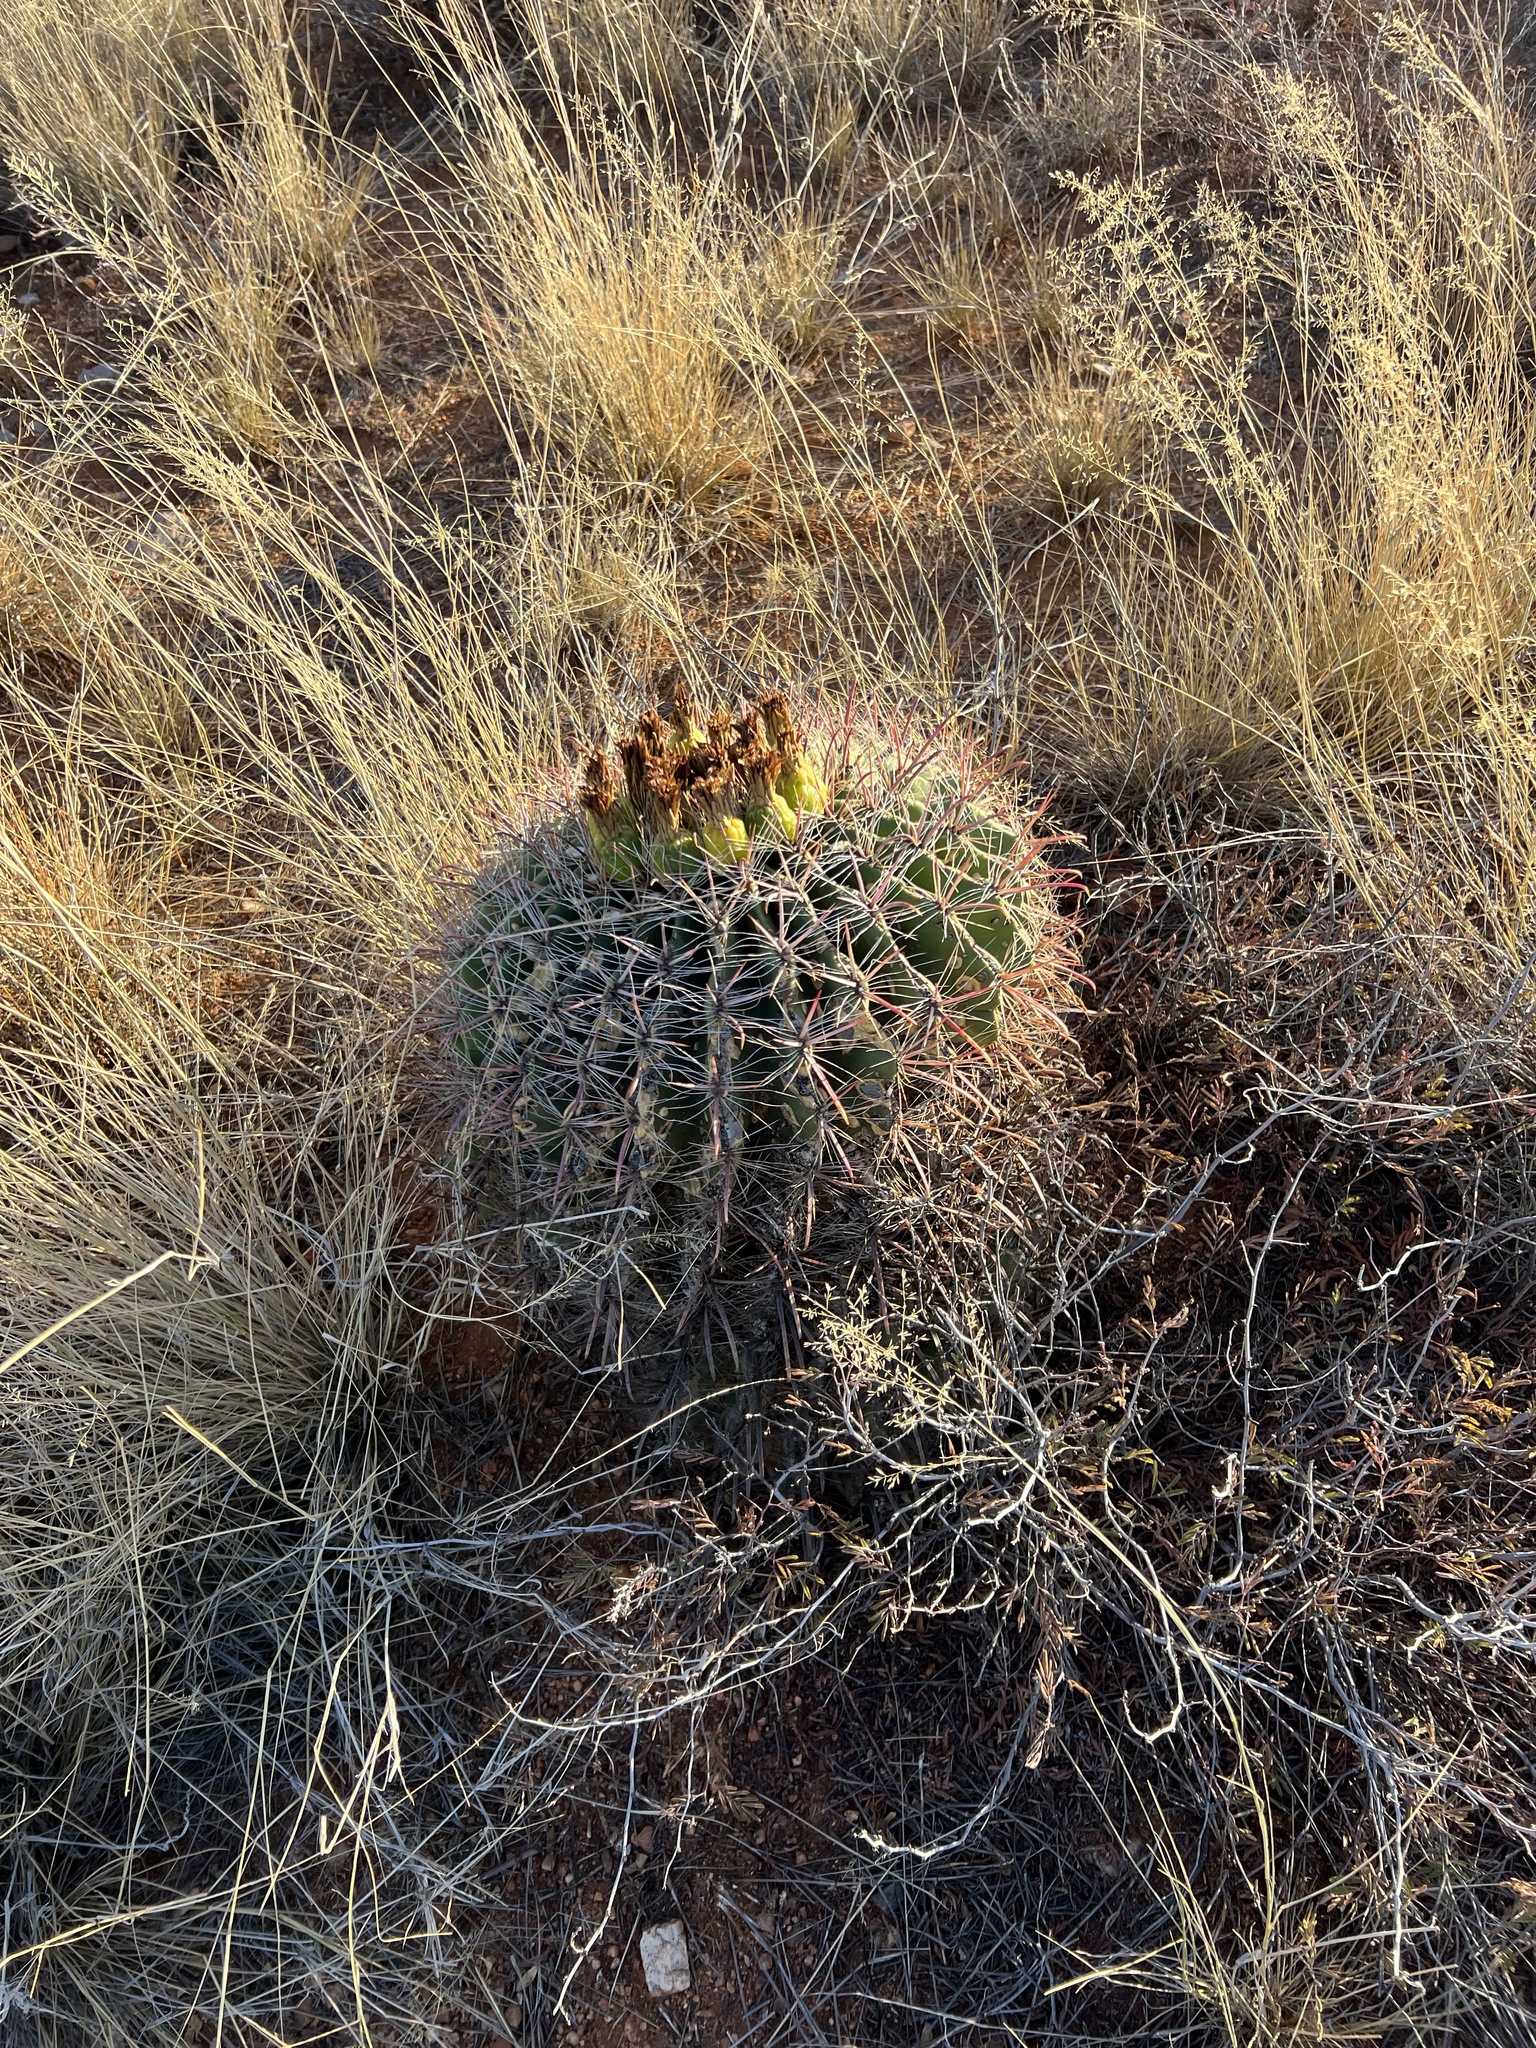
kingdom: Plantae
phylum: Tracheophyta
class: Magnoliopsida
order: Caryophyllales
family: Cactaceae
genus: Ferocactus
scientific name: Ferocactus wislizeni
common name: Candy barrel cactus
